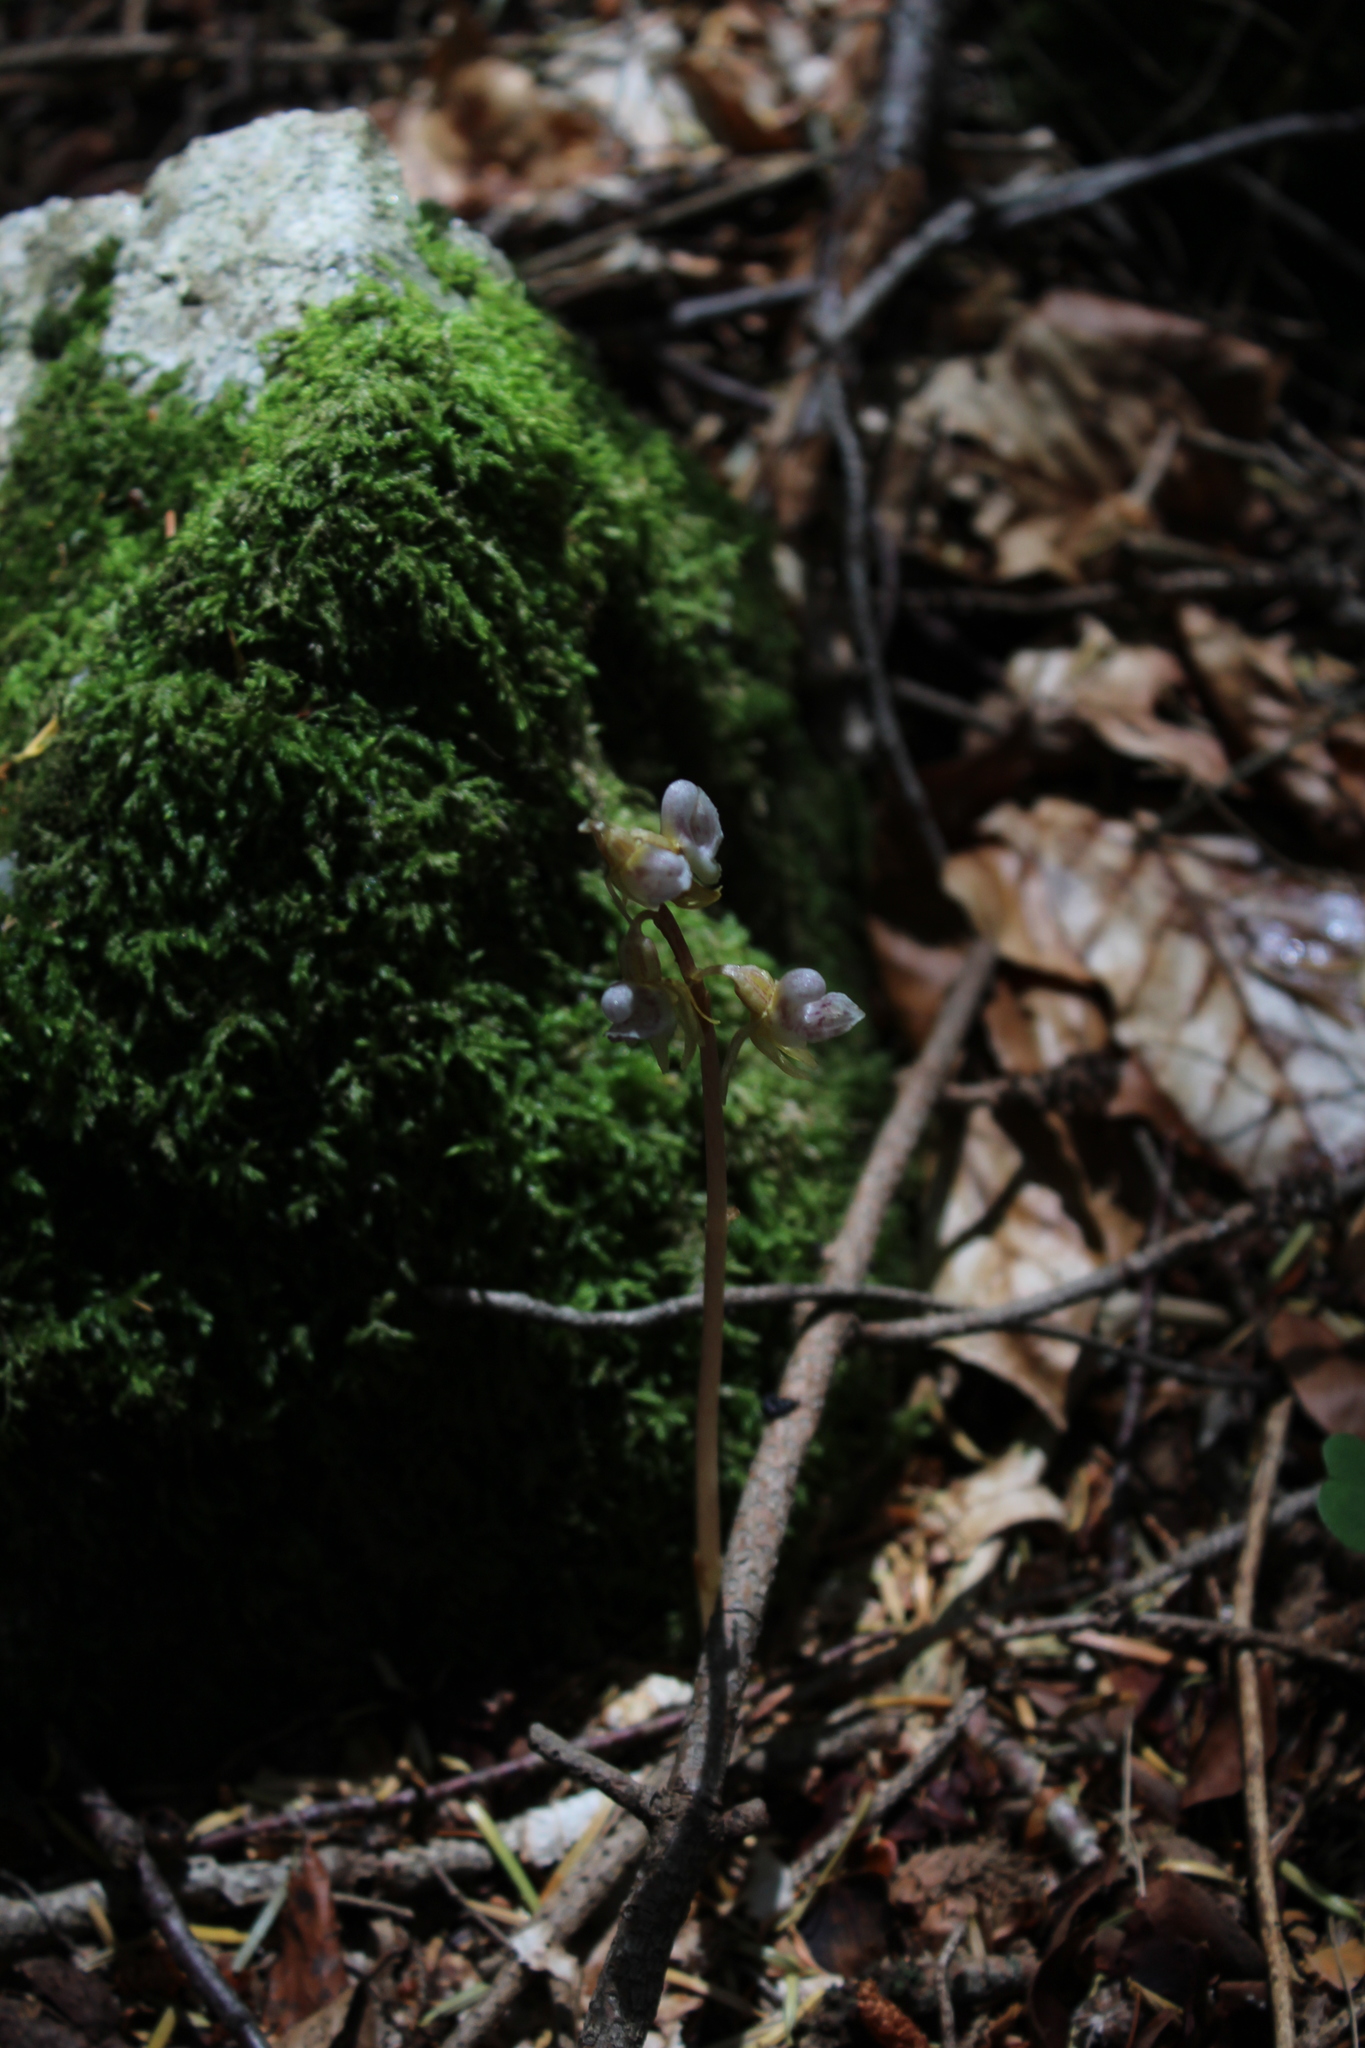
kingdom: Plantae
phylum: Tracheophyta
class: Liliopsida
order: Asparagales
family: Orchidaceae
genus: Epipogium
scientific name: Epipogium aphyllum
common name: Ghost orchid
